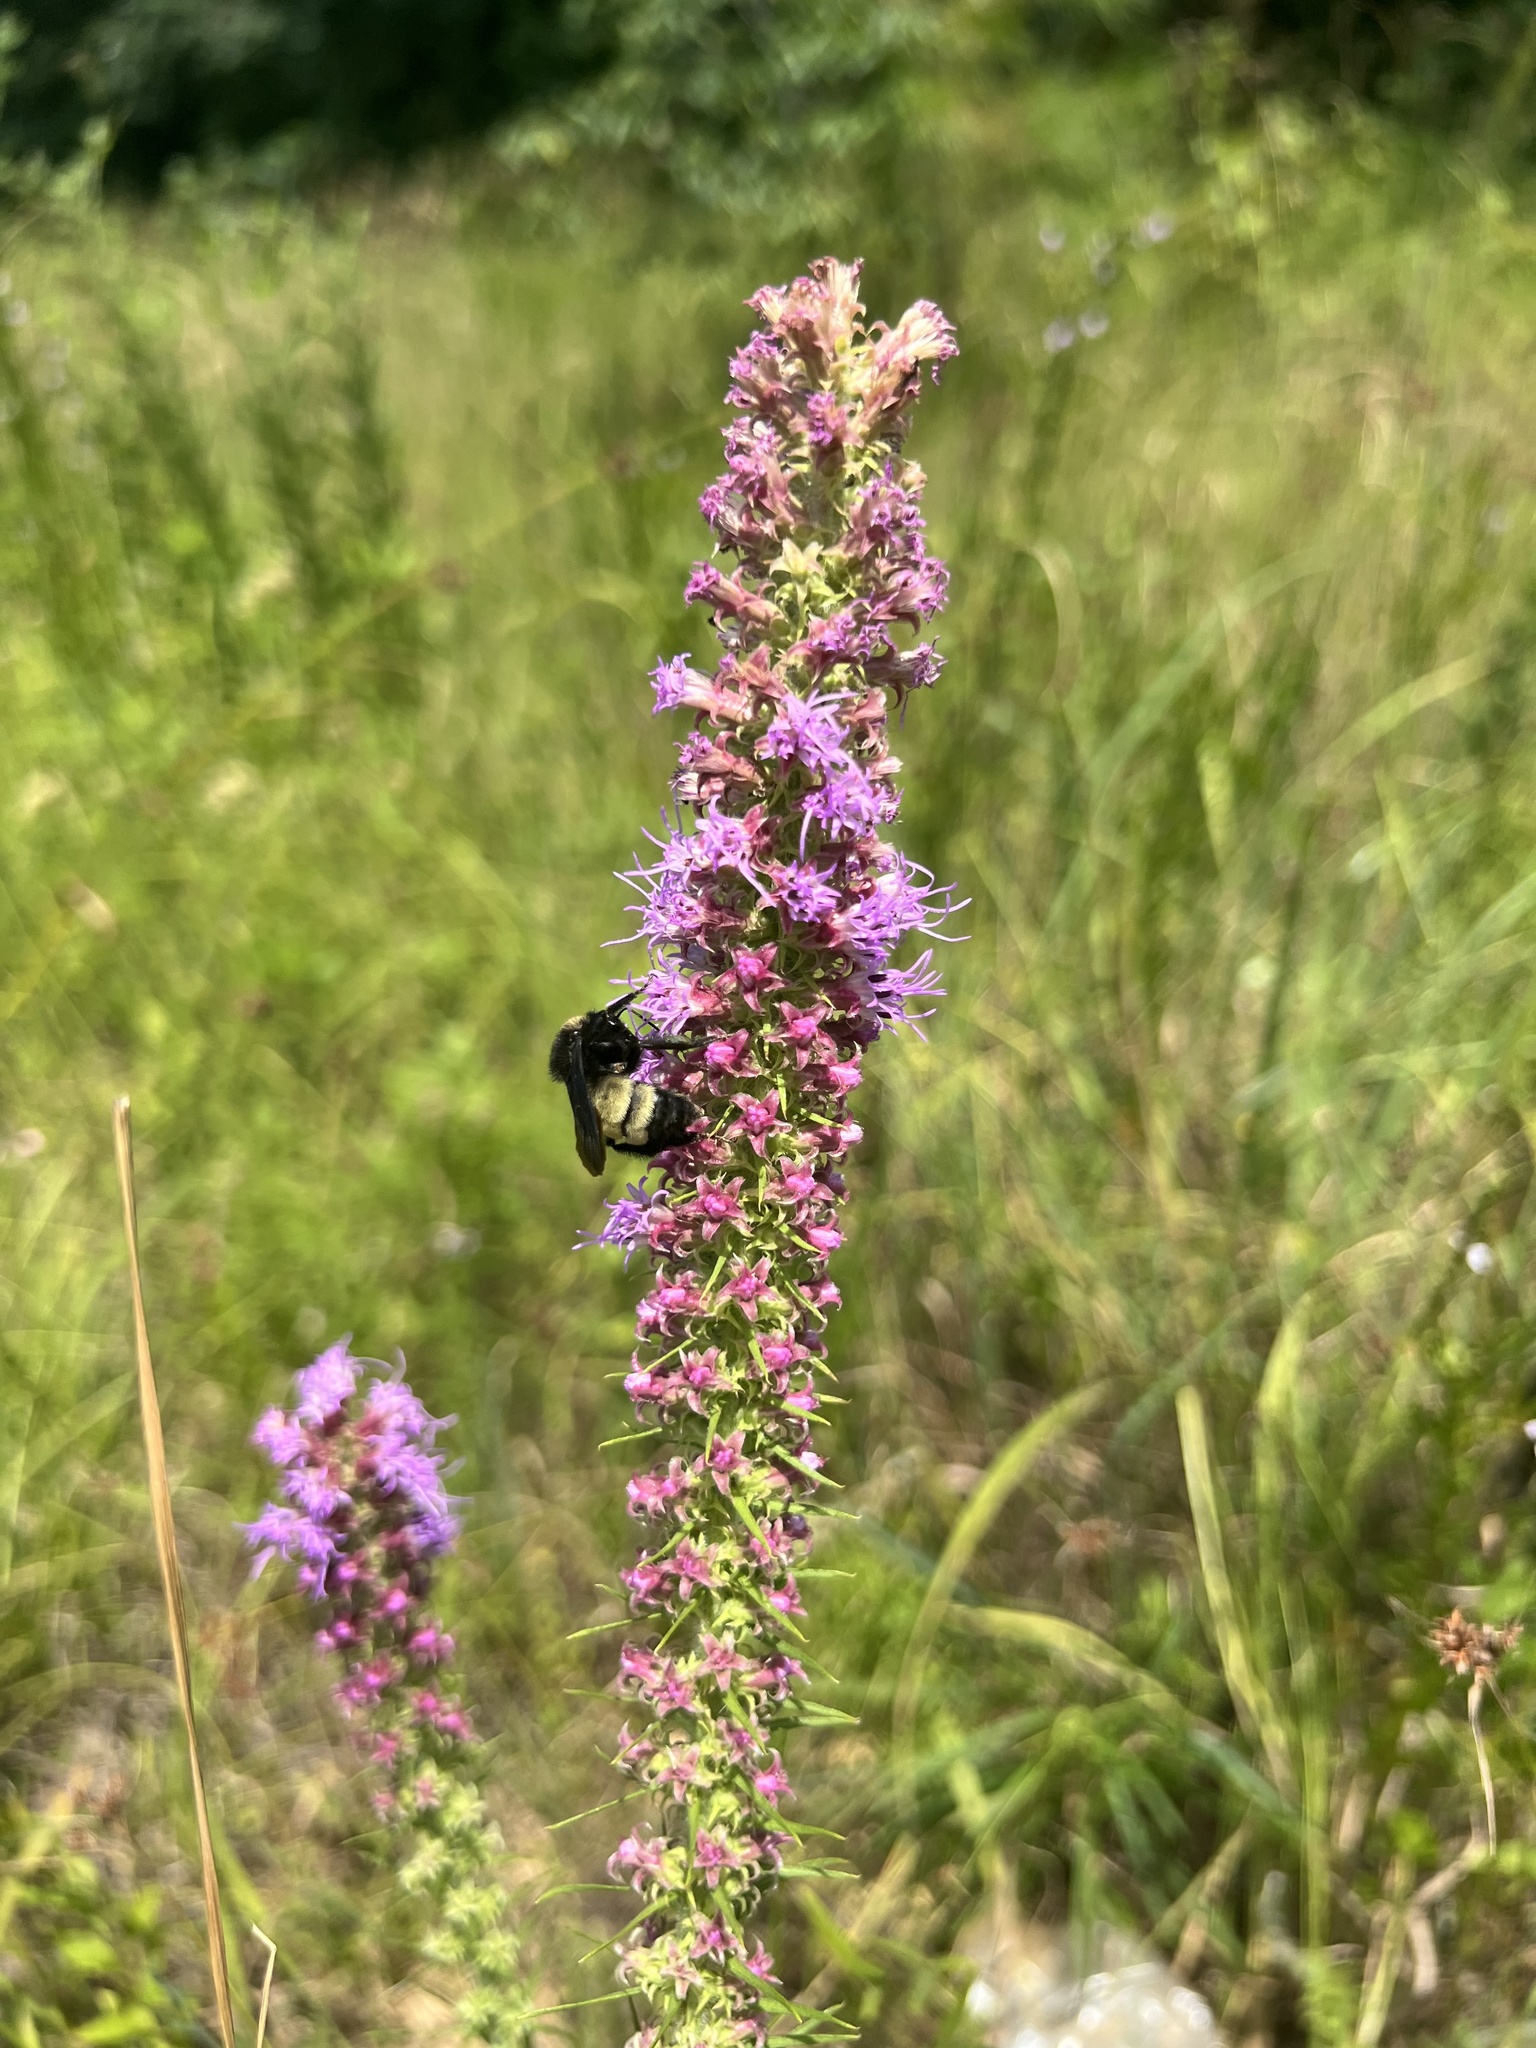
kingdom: Animalia
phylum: Arthropoda
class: Insecta
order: Hymenoptera
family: Apidae
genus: Bombus
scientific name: Bombus pensylvanicus
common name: Bumble bee
